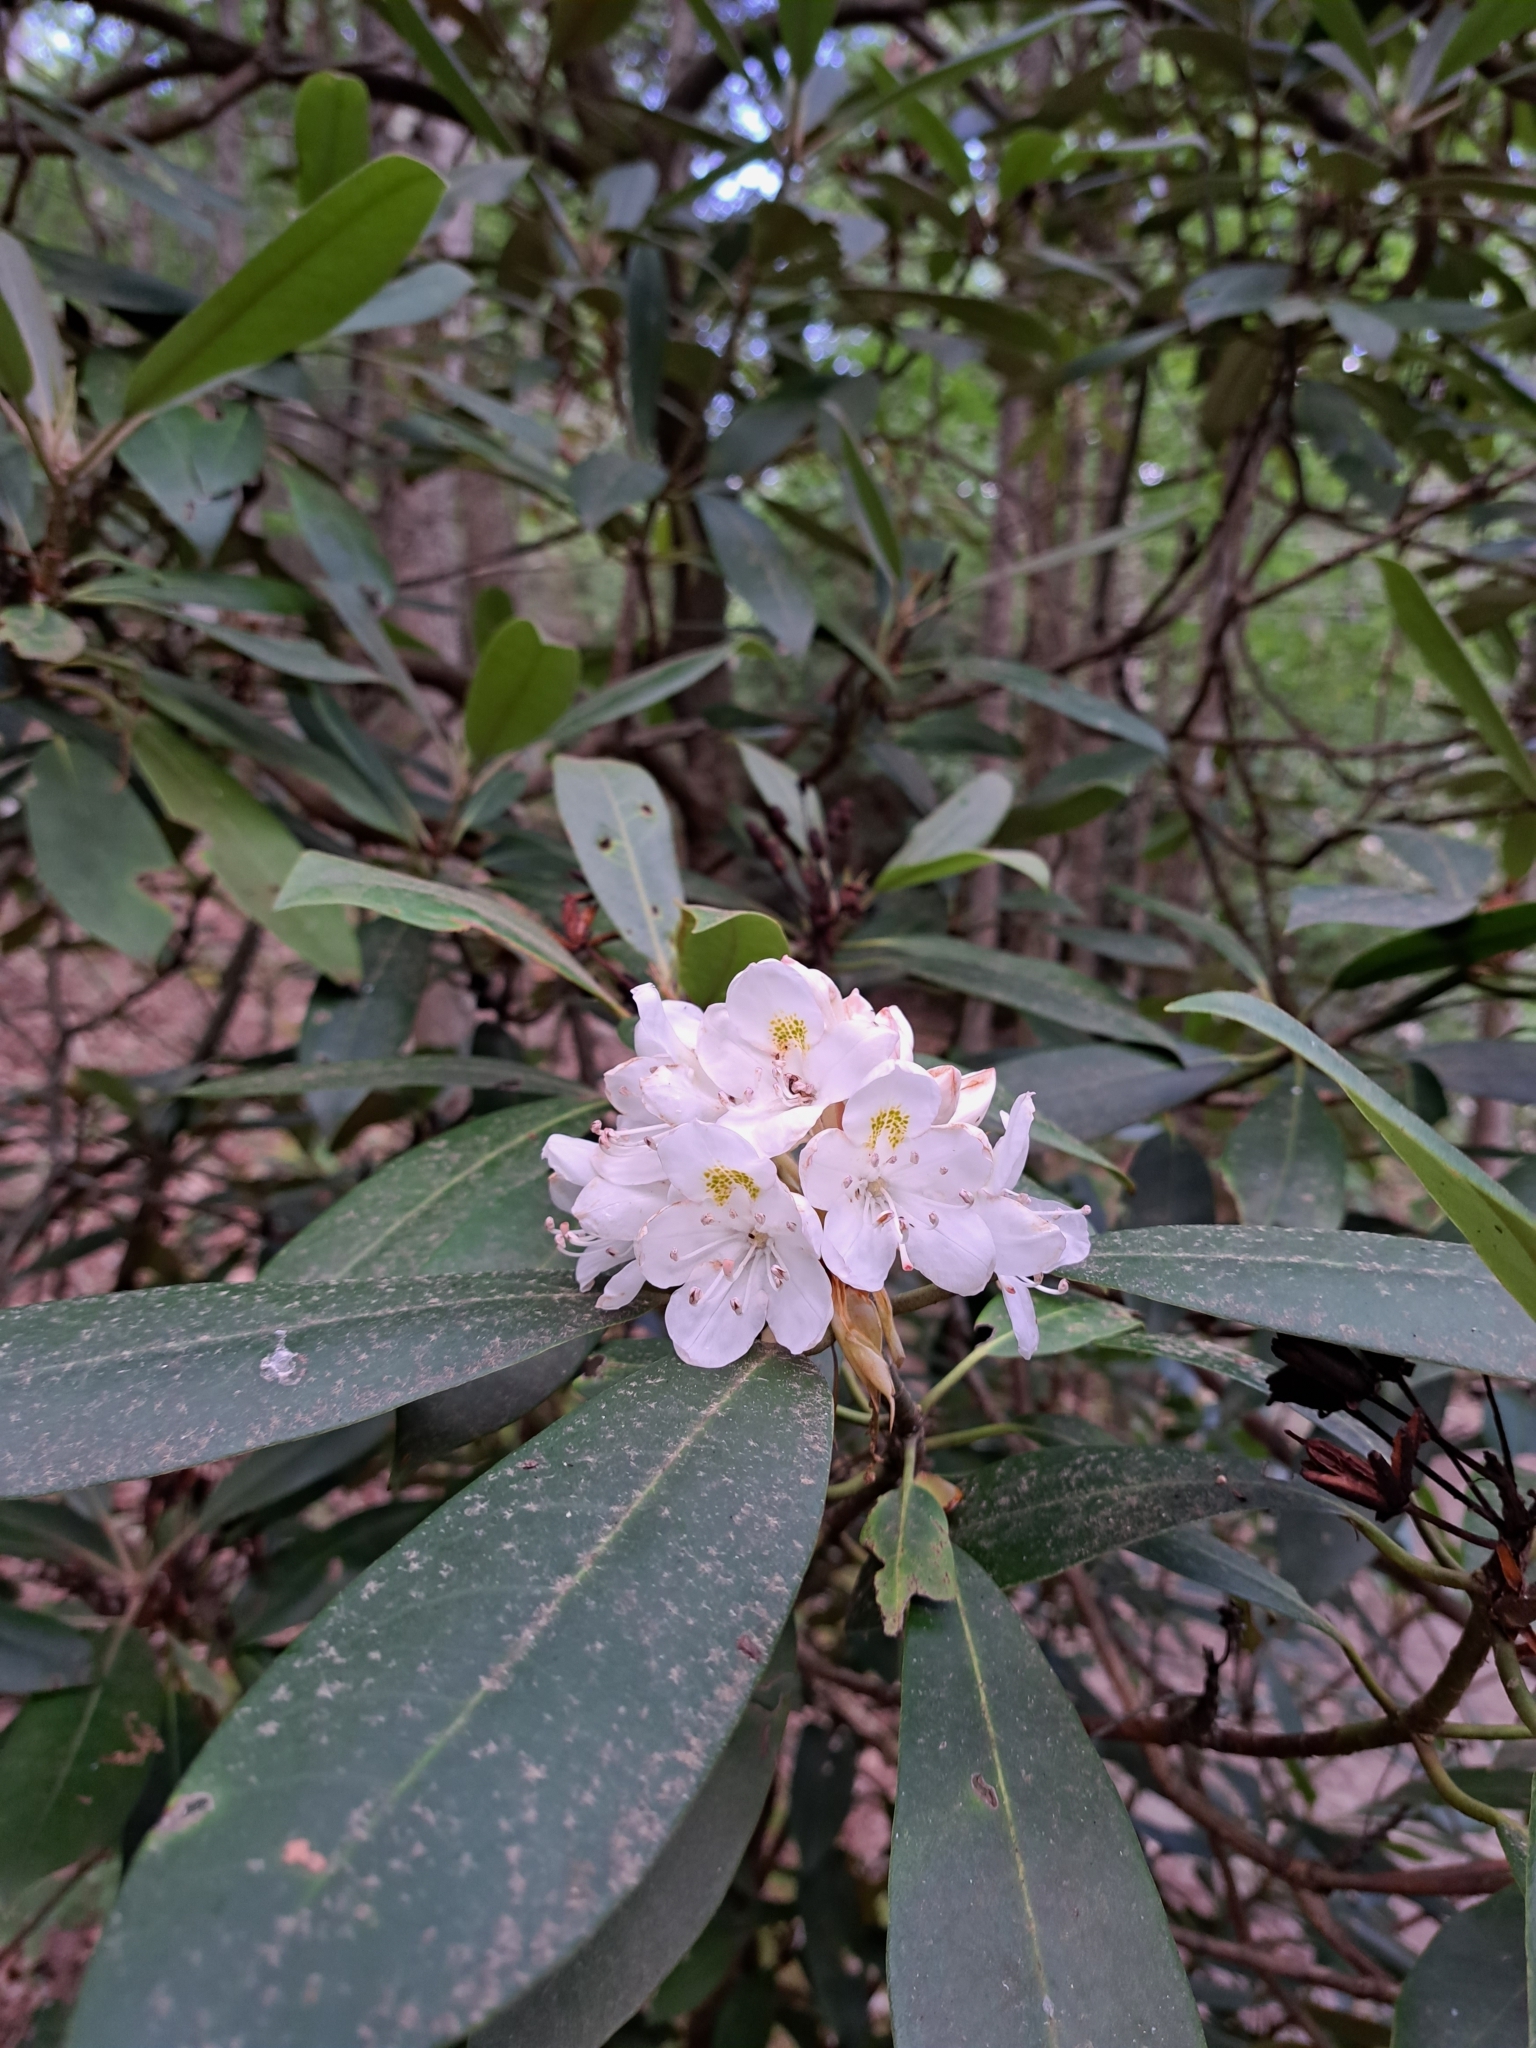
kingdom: Plantae
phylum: Tracheophyta
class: Magnoliopsida
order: Ericales
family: Ericaceae
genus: Rhododendron
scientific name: Rhododendron maximum
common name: Great rhododendron
